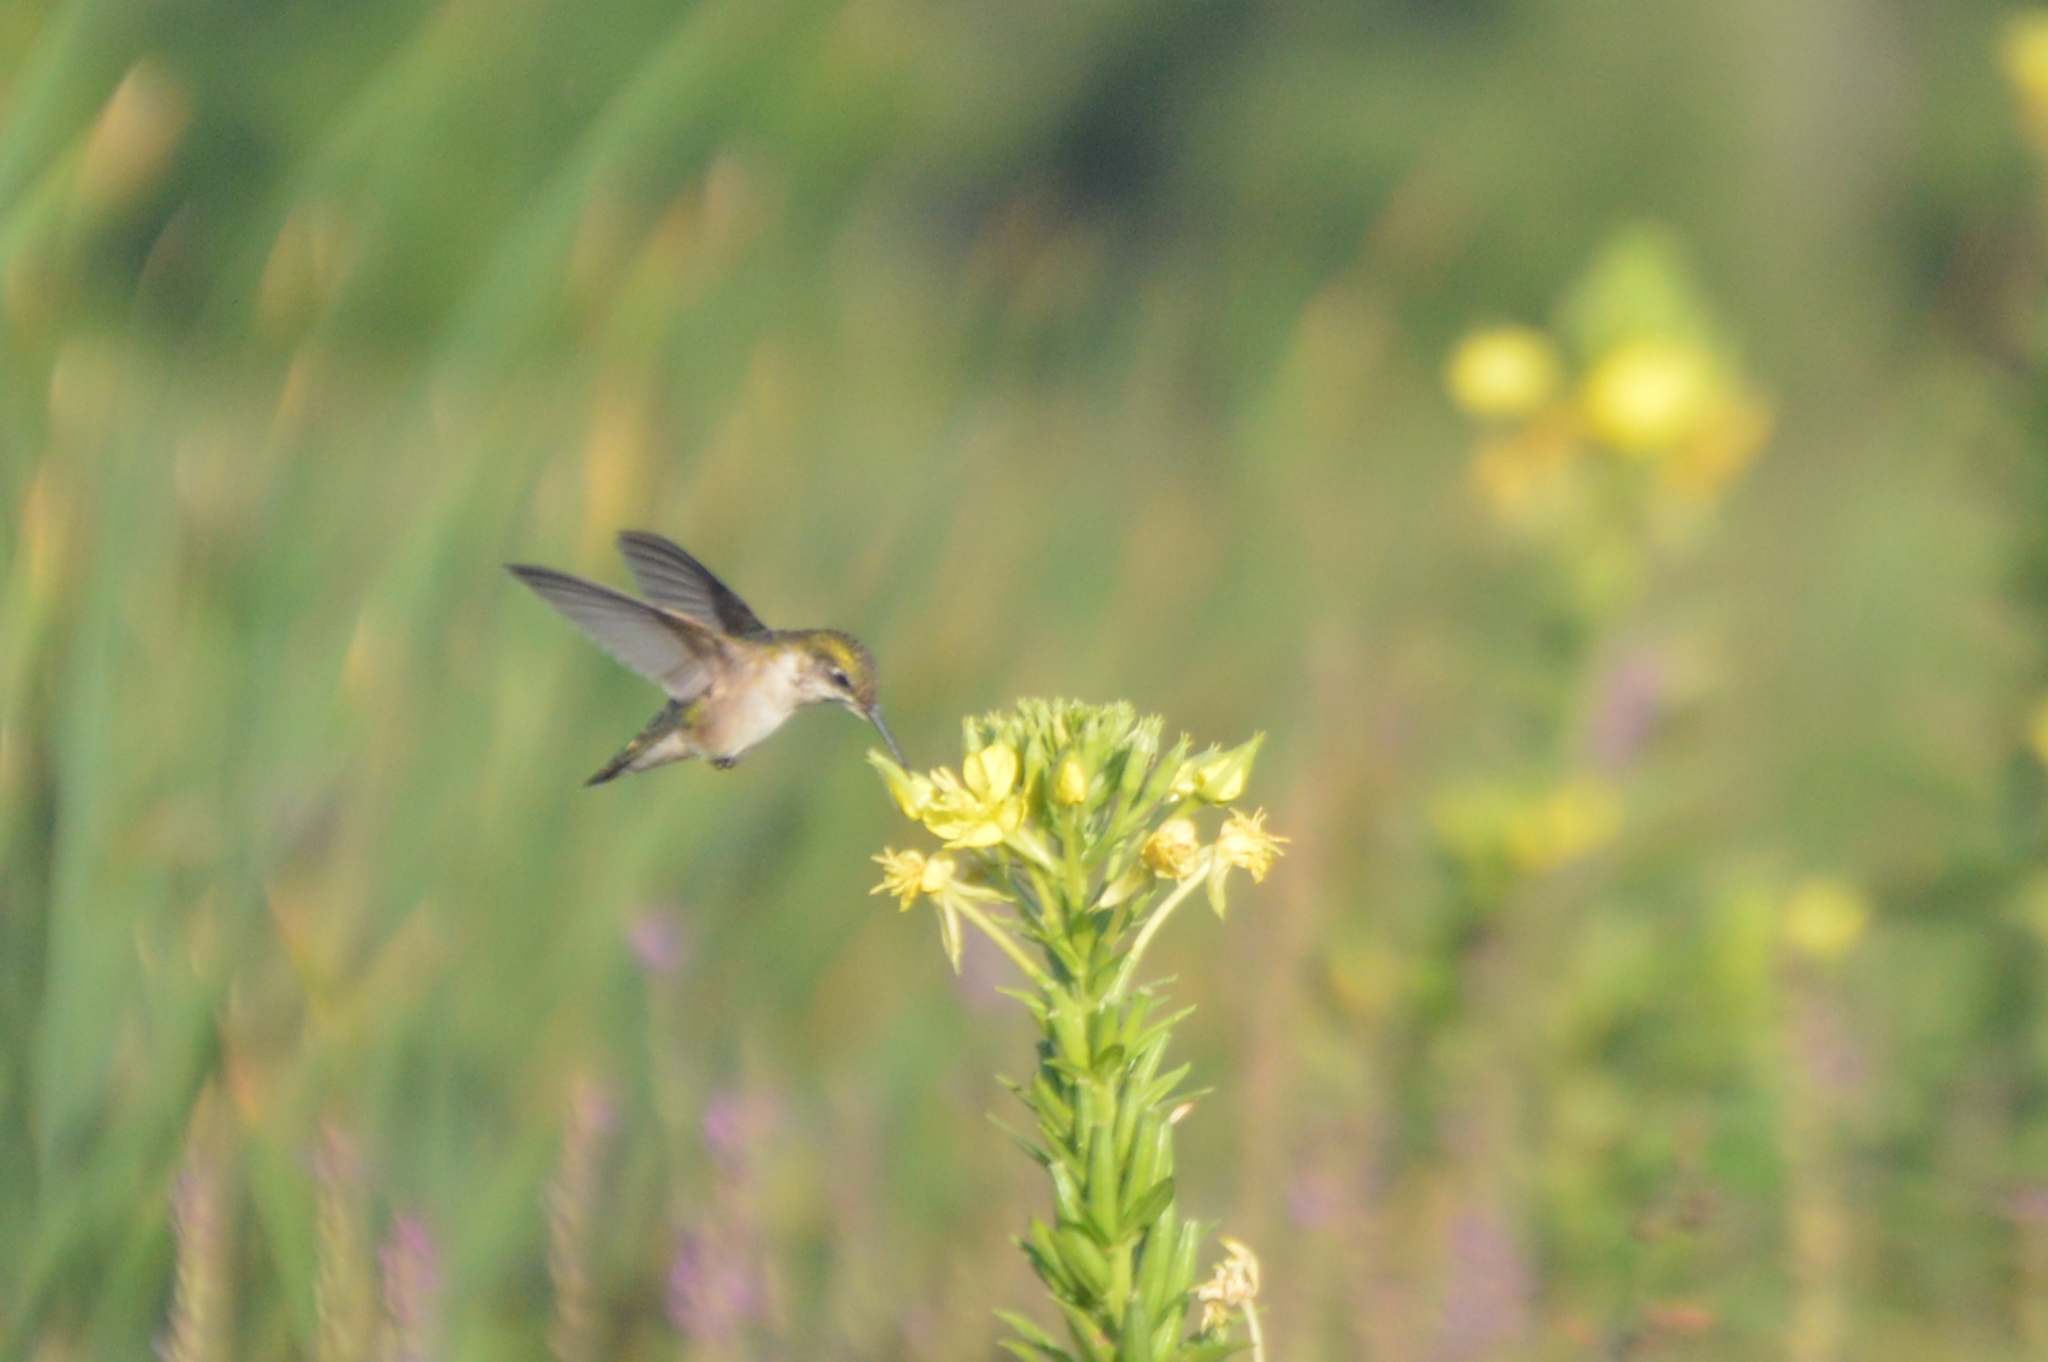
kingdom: Animalia
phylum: Chordata
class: Aves
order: Apodiformes
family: Trochilidae
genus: Archilochus
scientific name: Archilochus colubris
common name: Ruby-throated hummingbird
